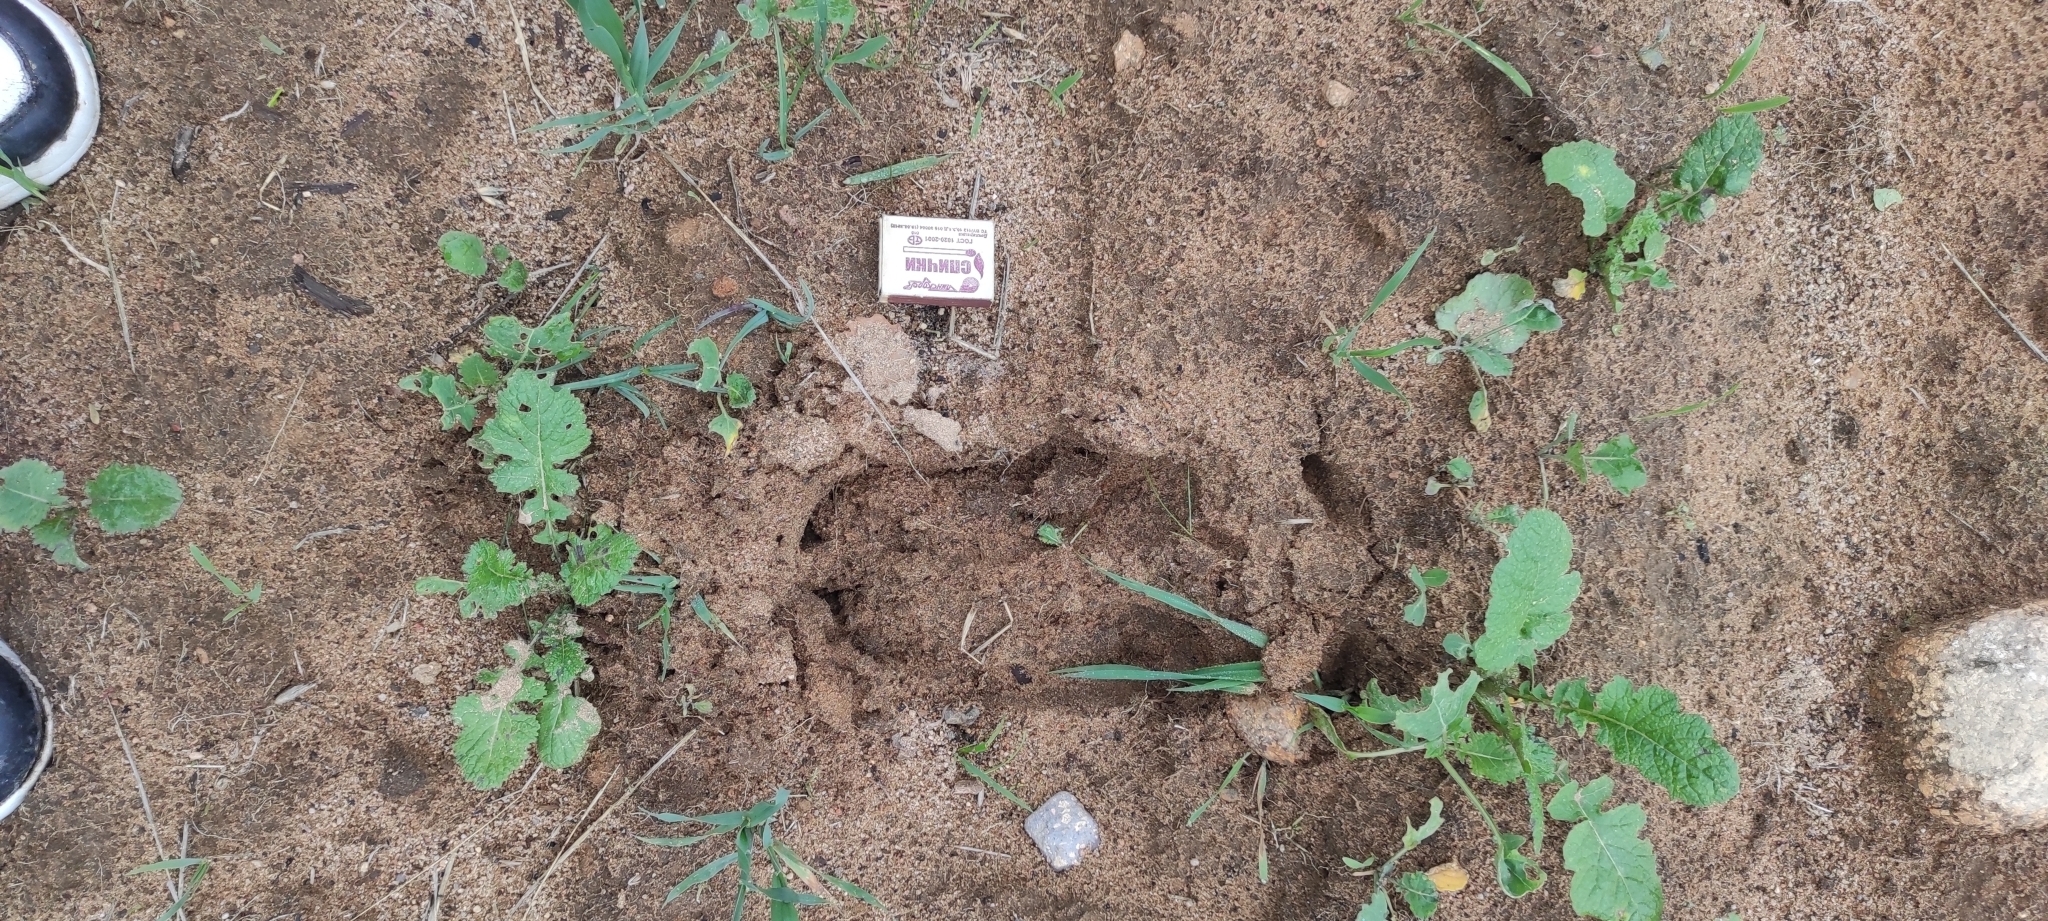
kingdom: Animalia
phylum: Chordata
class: Mammalia
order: Artiodactyla
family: Cervidae
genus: Alces
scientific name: Alces alces
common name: Moose
